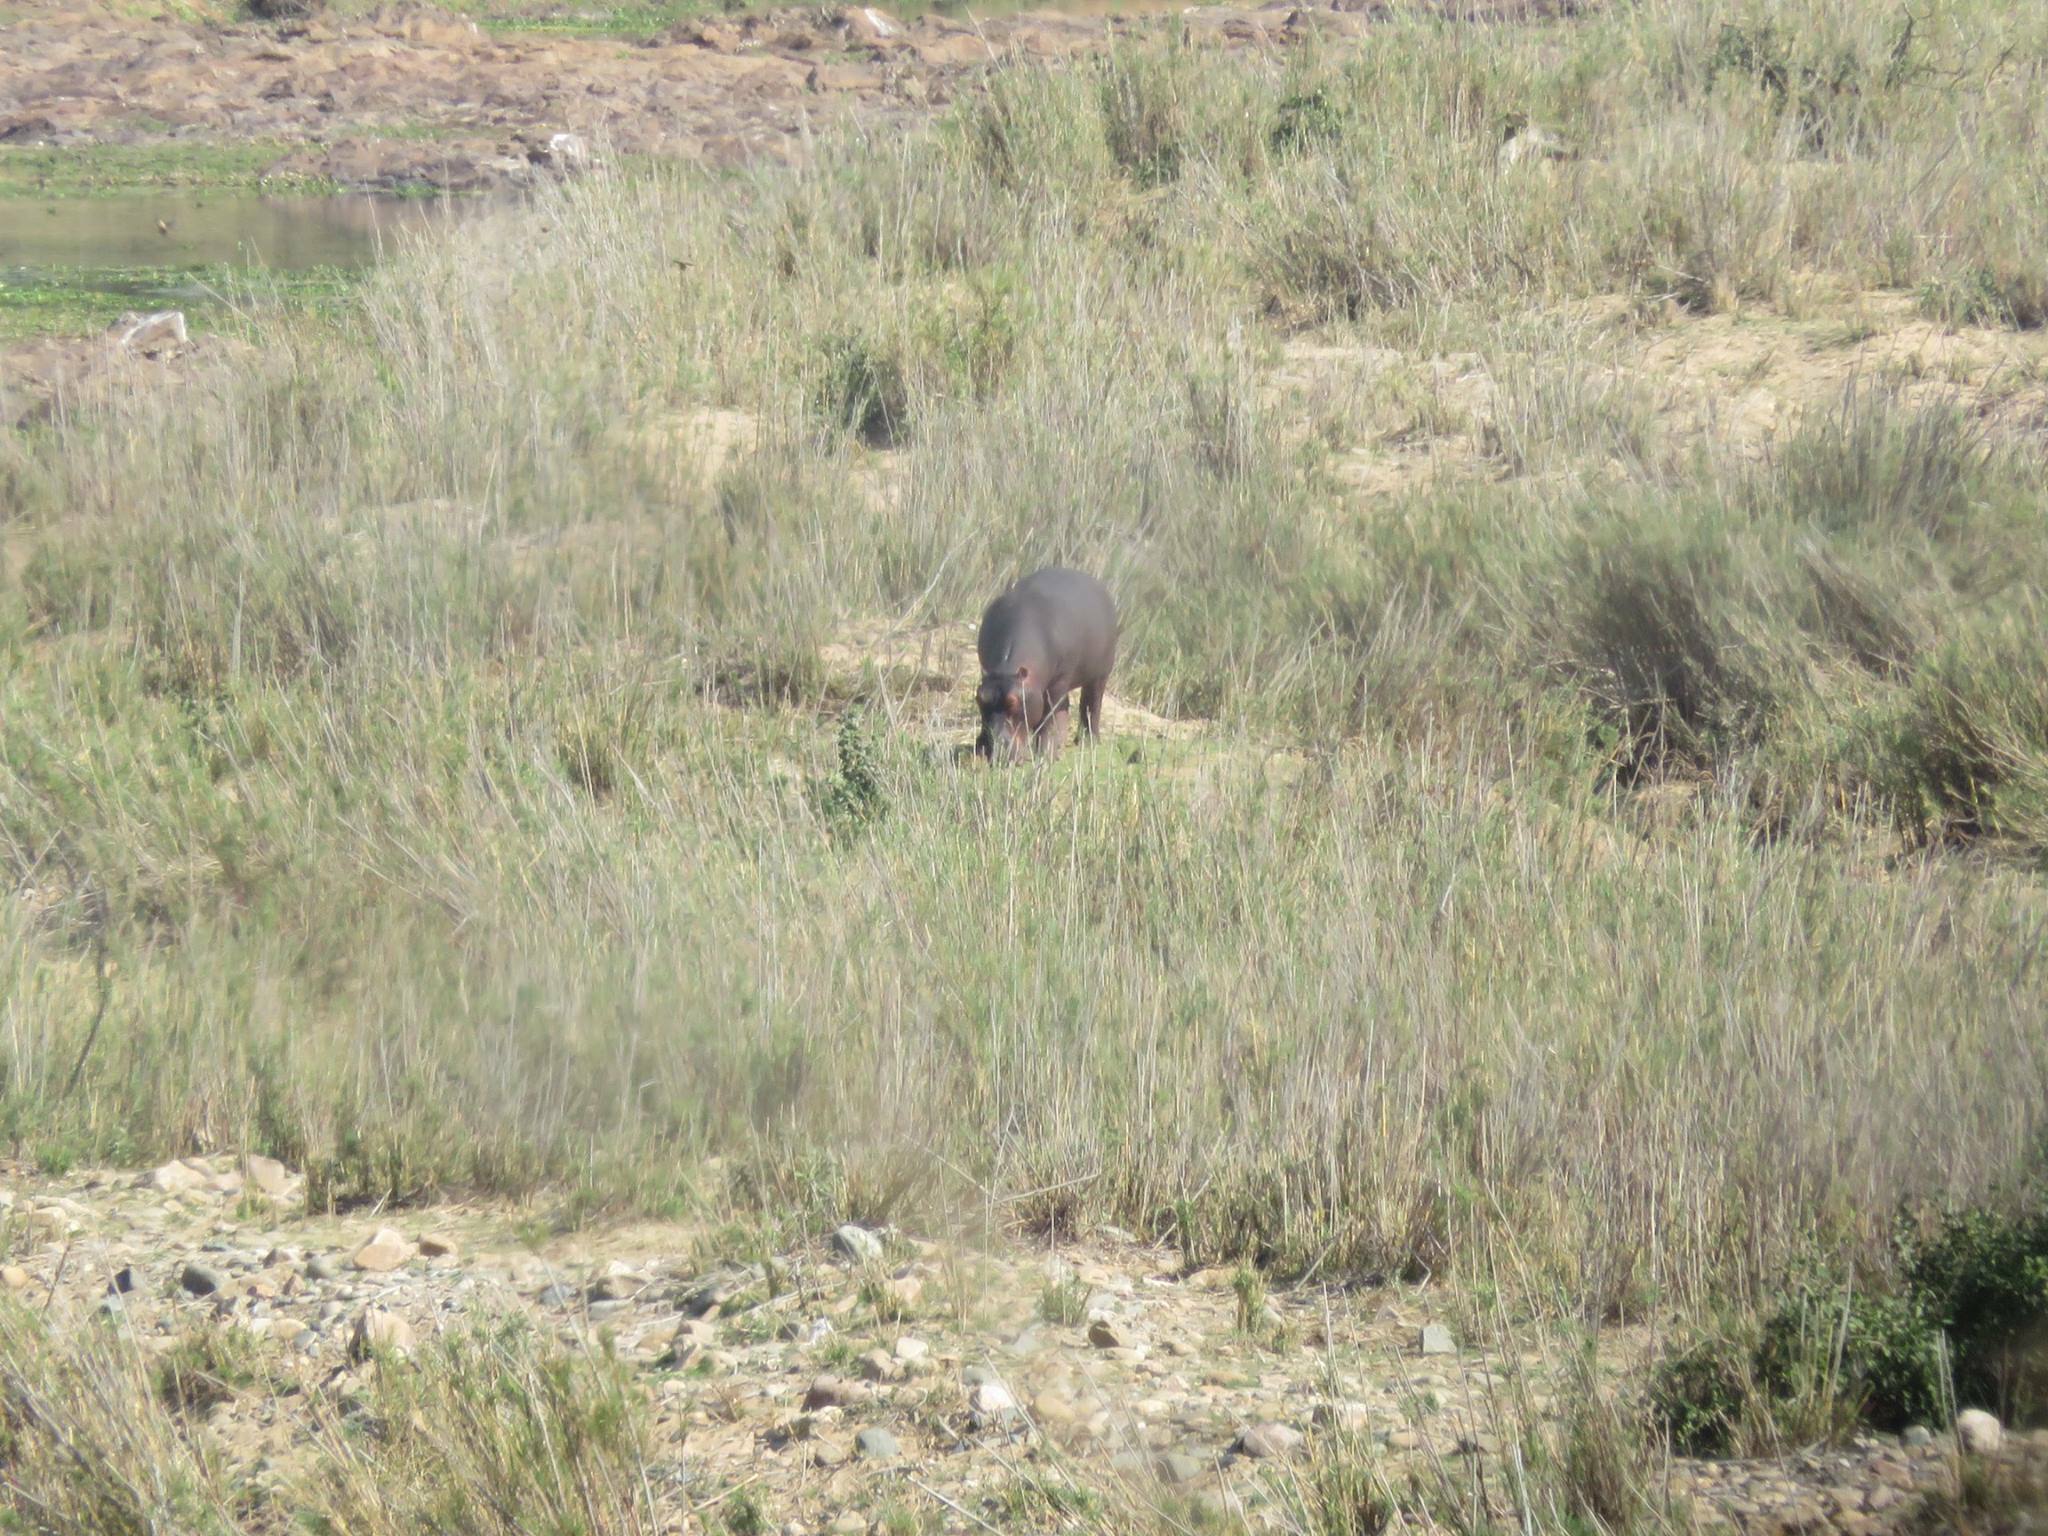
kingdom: Animalia
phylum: Chordata
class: Mammalia
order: Artiodactyla
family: Hippopotamidae
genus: Hippopotamus
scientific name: Hippopotamus amphibius
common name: Common hippopotamus
